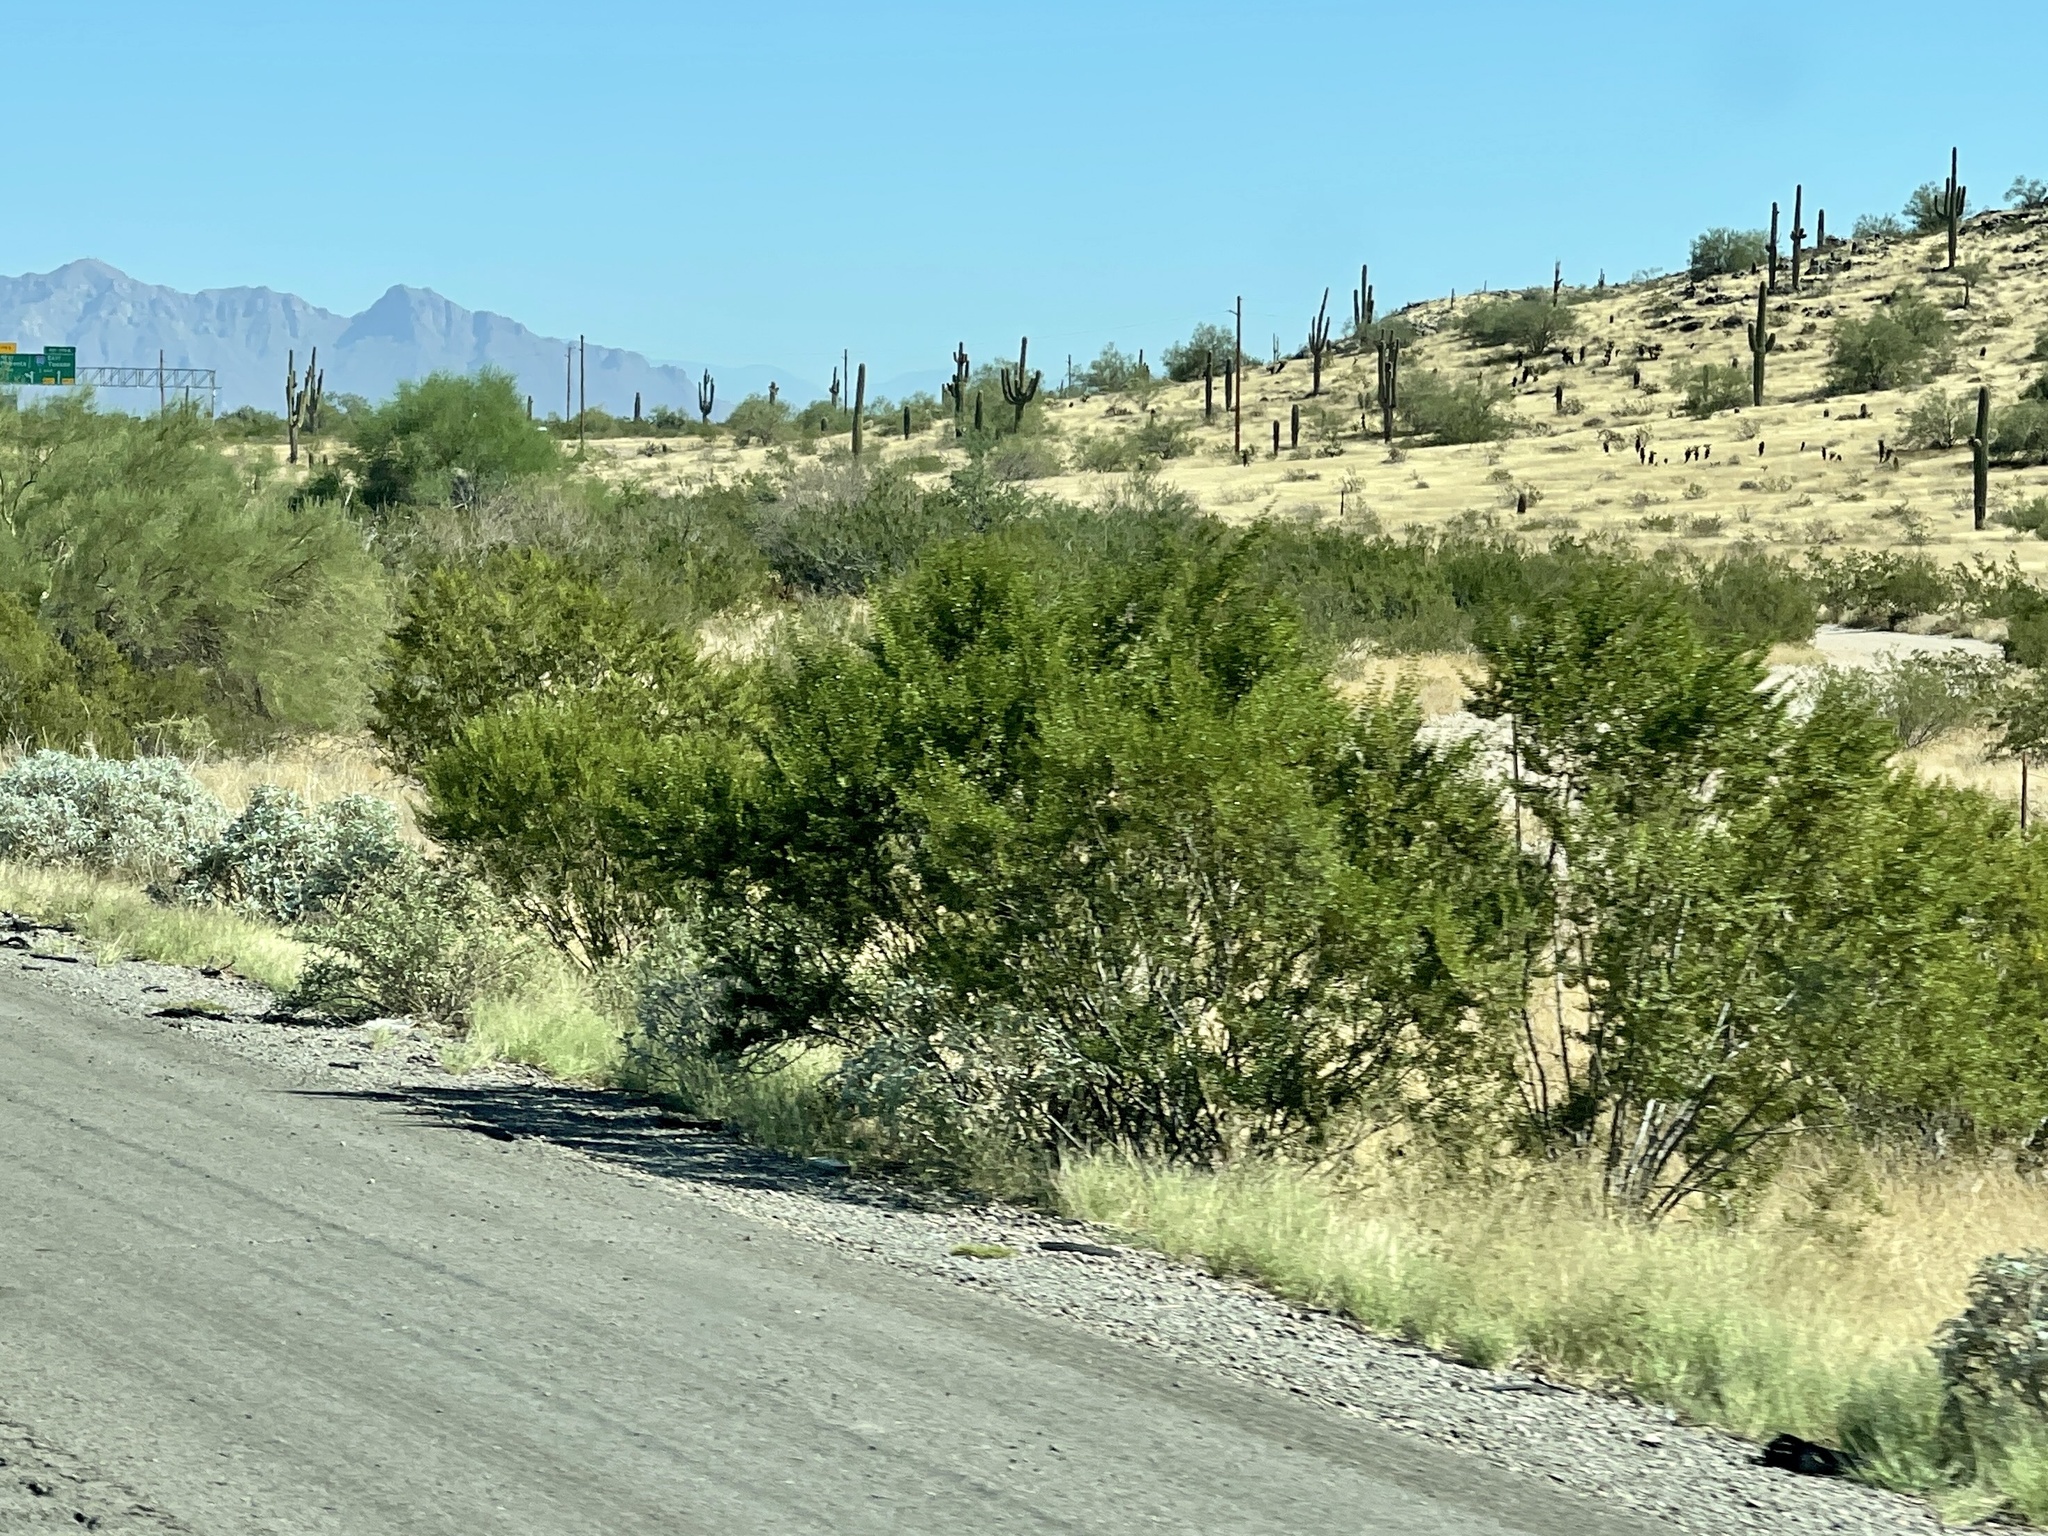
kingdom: Plantae
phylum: Tracheophyta
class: Magnoliopsida
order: Zygophyllales
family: Zygophyllaceae
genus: Larrea
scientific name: Larrea tridentata
